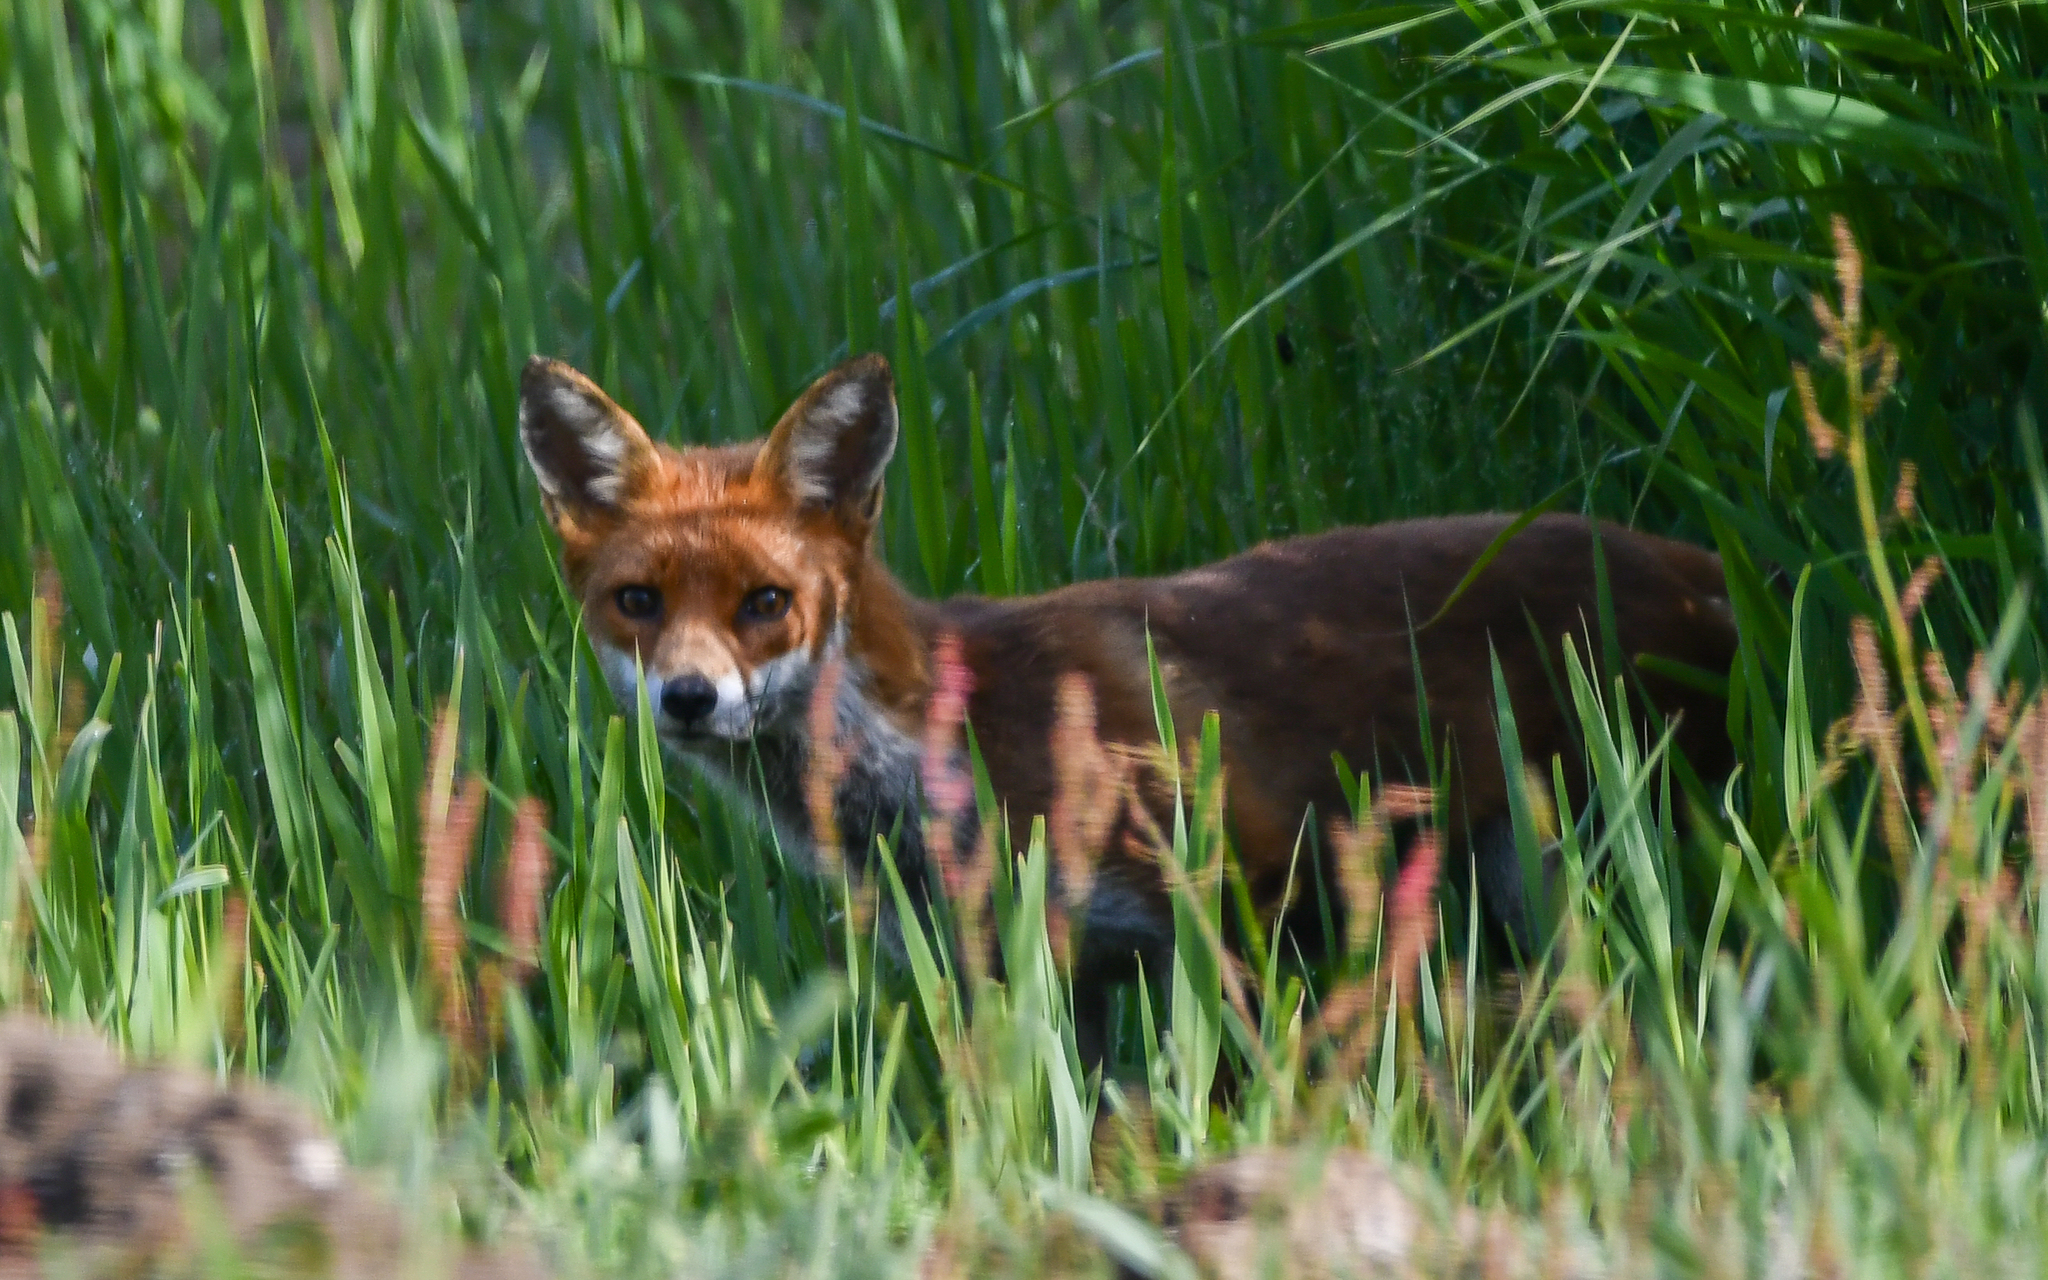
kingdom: Animalia
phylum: Chordata
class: Mammalia
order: Carnivora
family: Canidae
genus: Vulpes
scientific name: Vulpes vulpes
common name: Red fox
